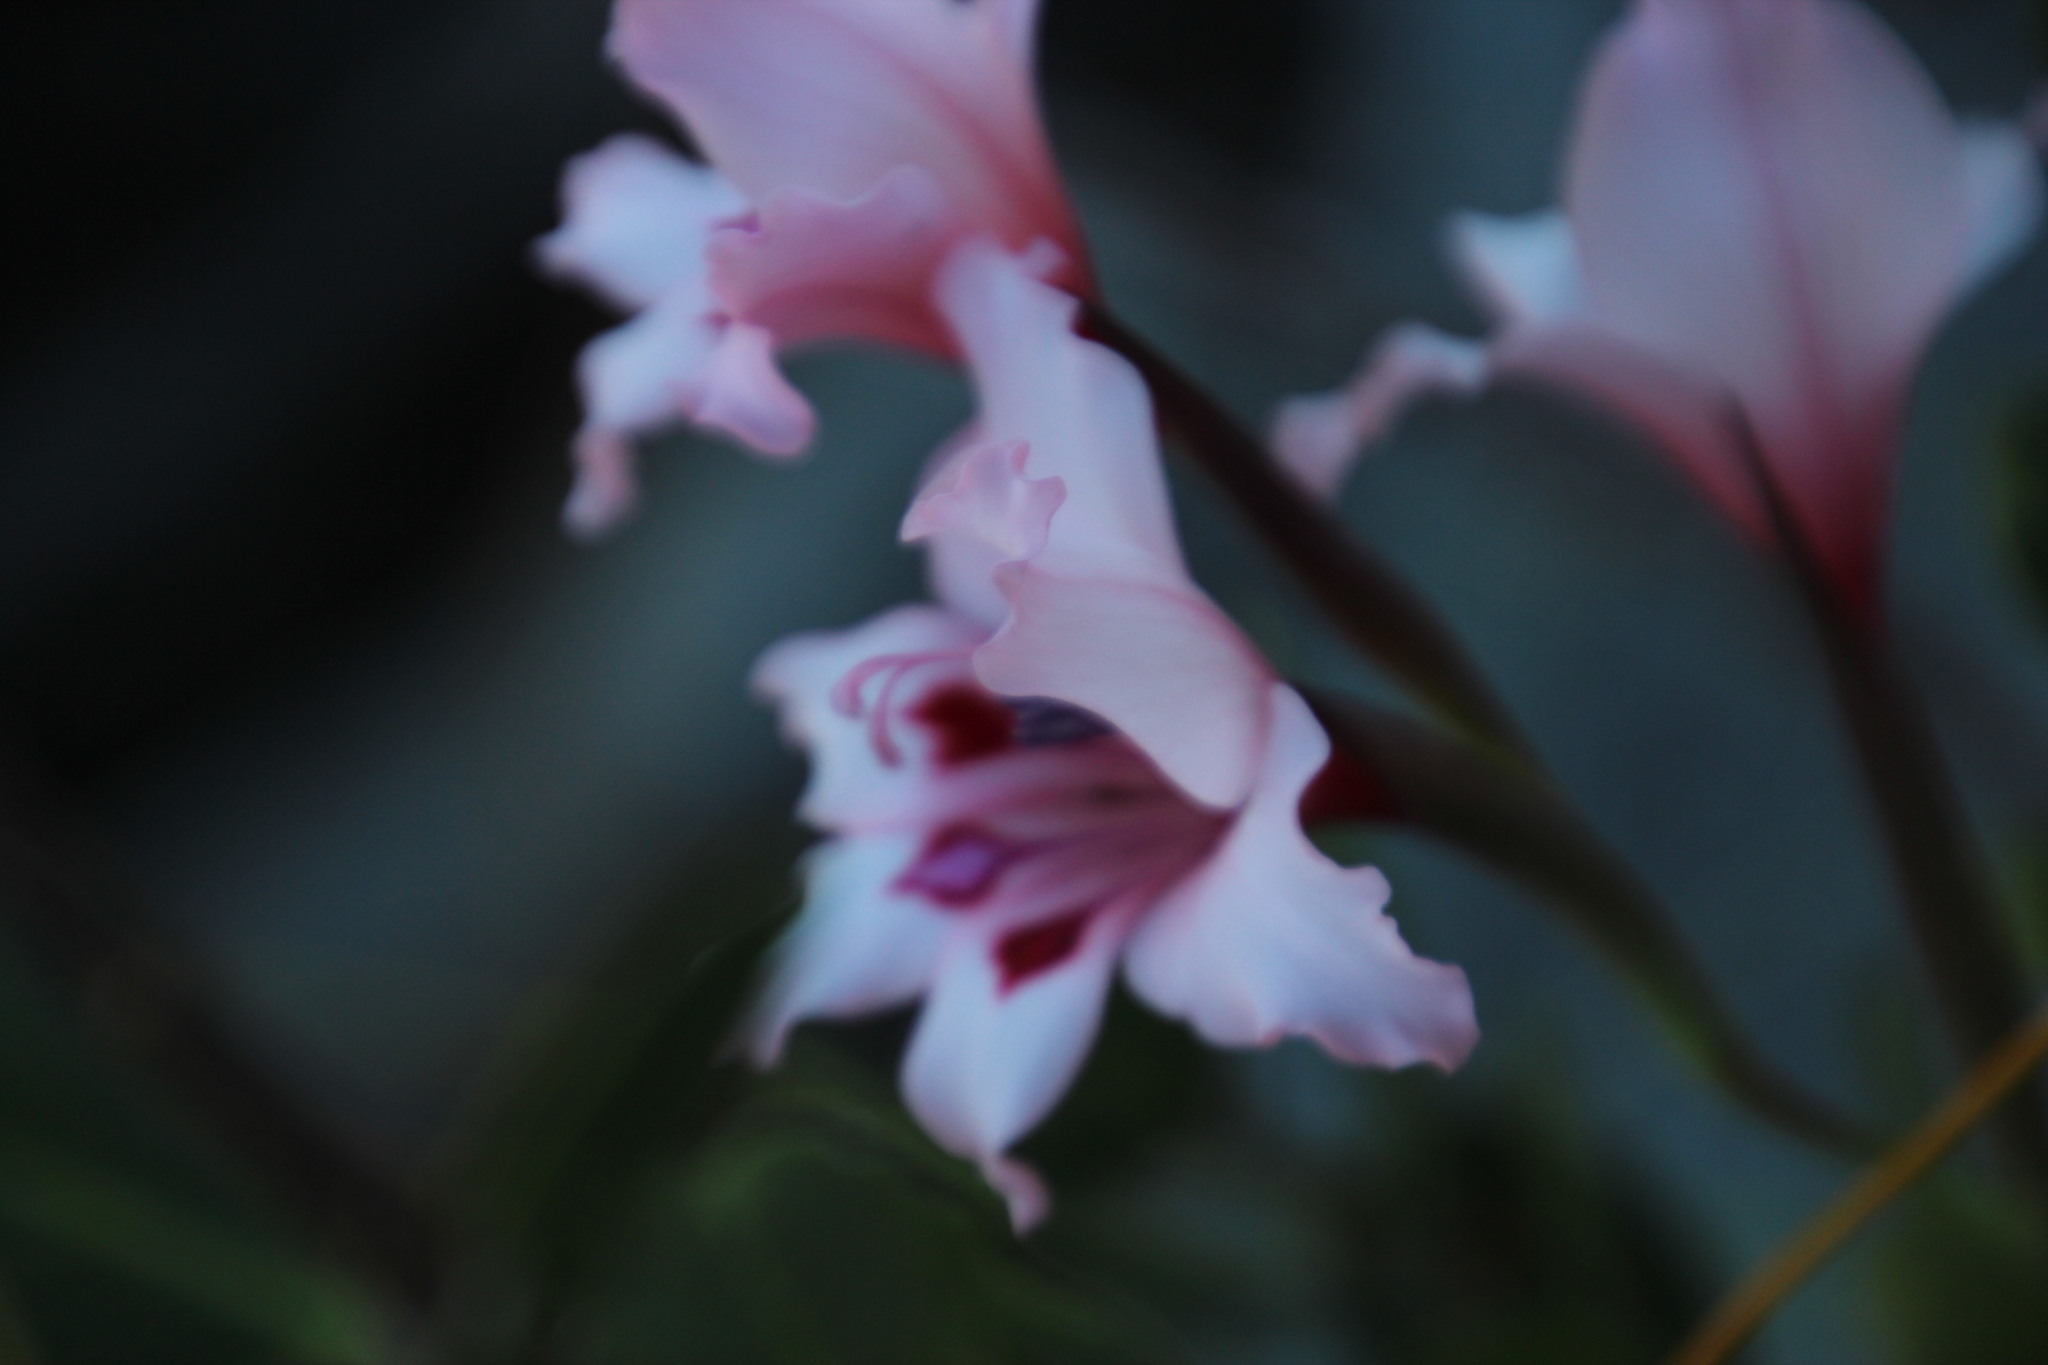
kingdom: Plantae
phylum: Tracheophyta
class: Liliopsida
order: Asparagales
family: Iridaceae
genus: Gladiolus
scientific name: Gladiolus carneus
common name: Painted-lady
